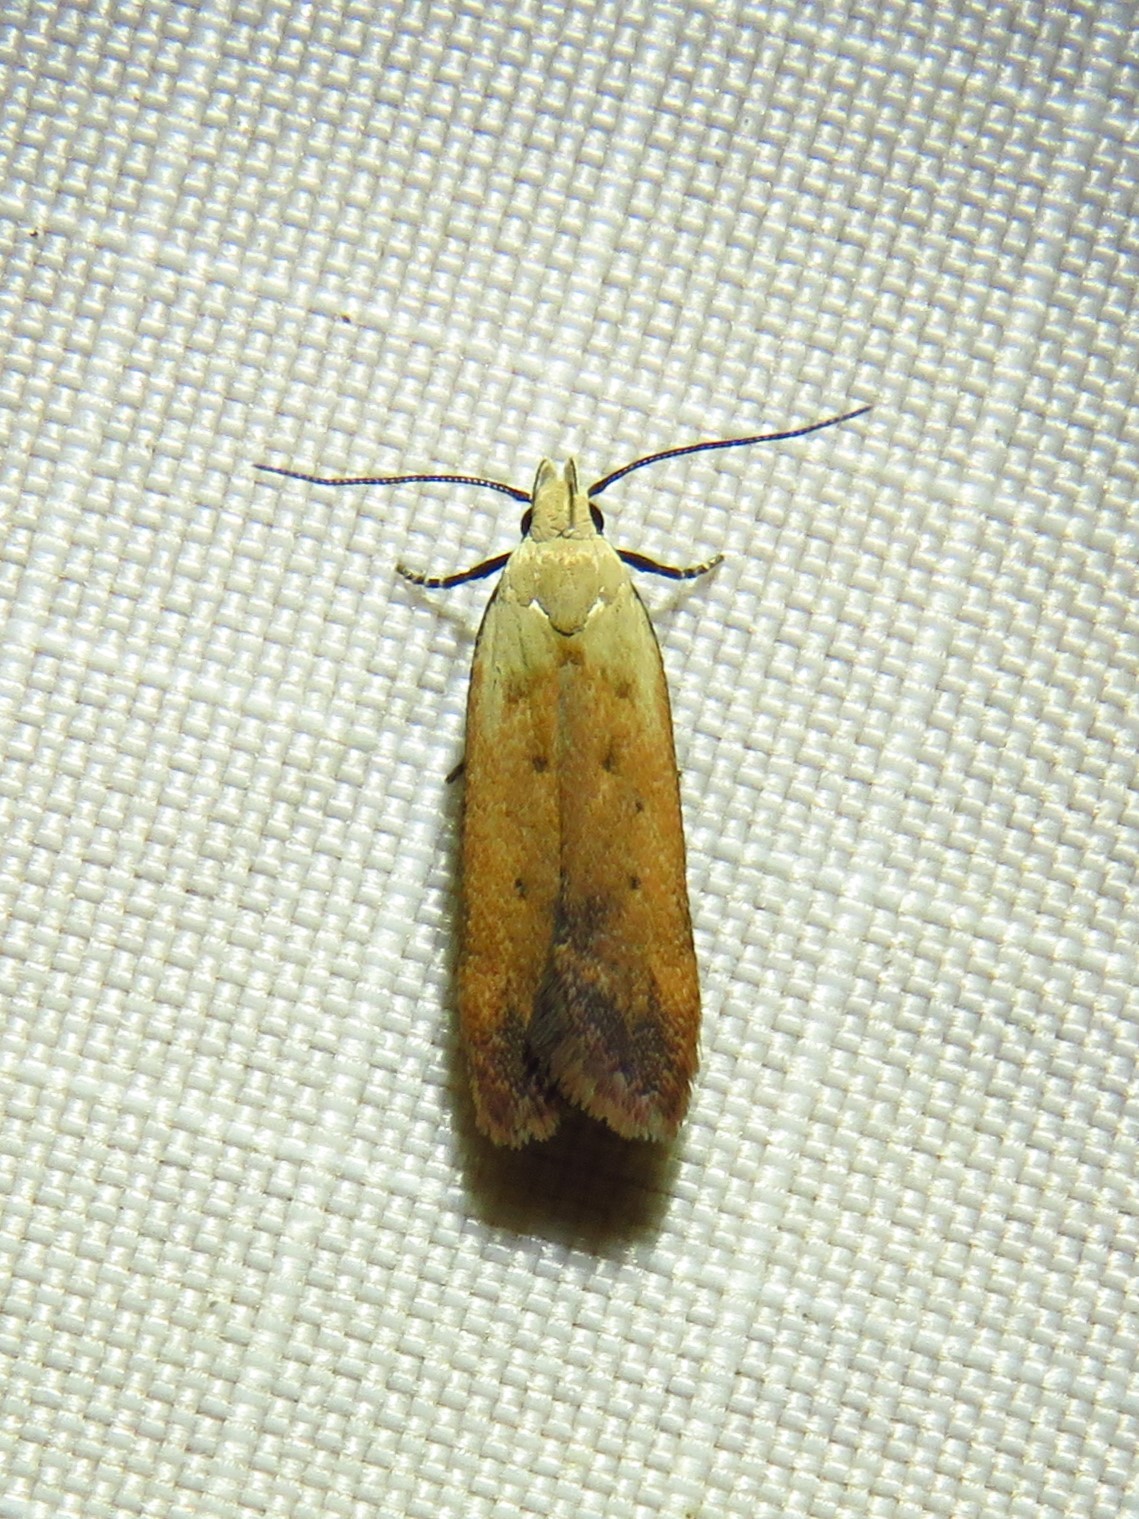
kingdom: Animalia
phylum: Arthropoda
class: Insecta
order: Lepidoptera
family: Gelechiidae
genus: Anacampsis
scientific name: Anacampsis fullonella
